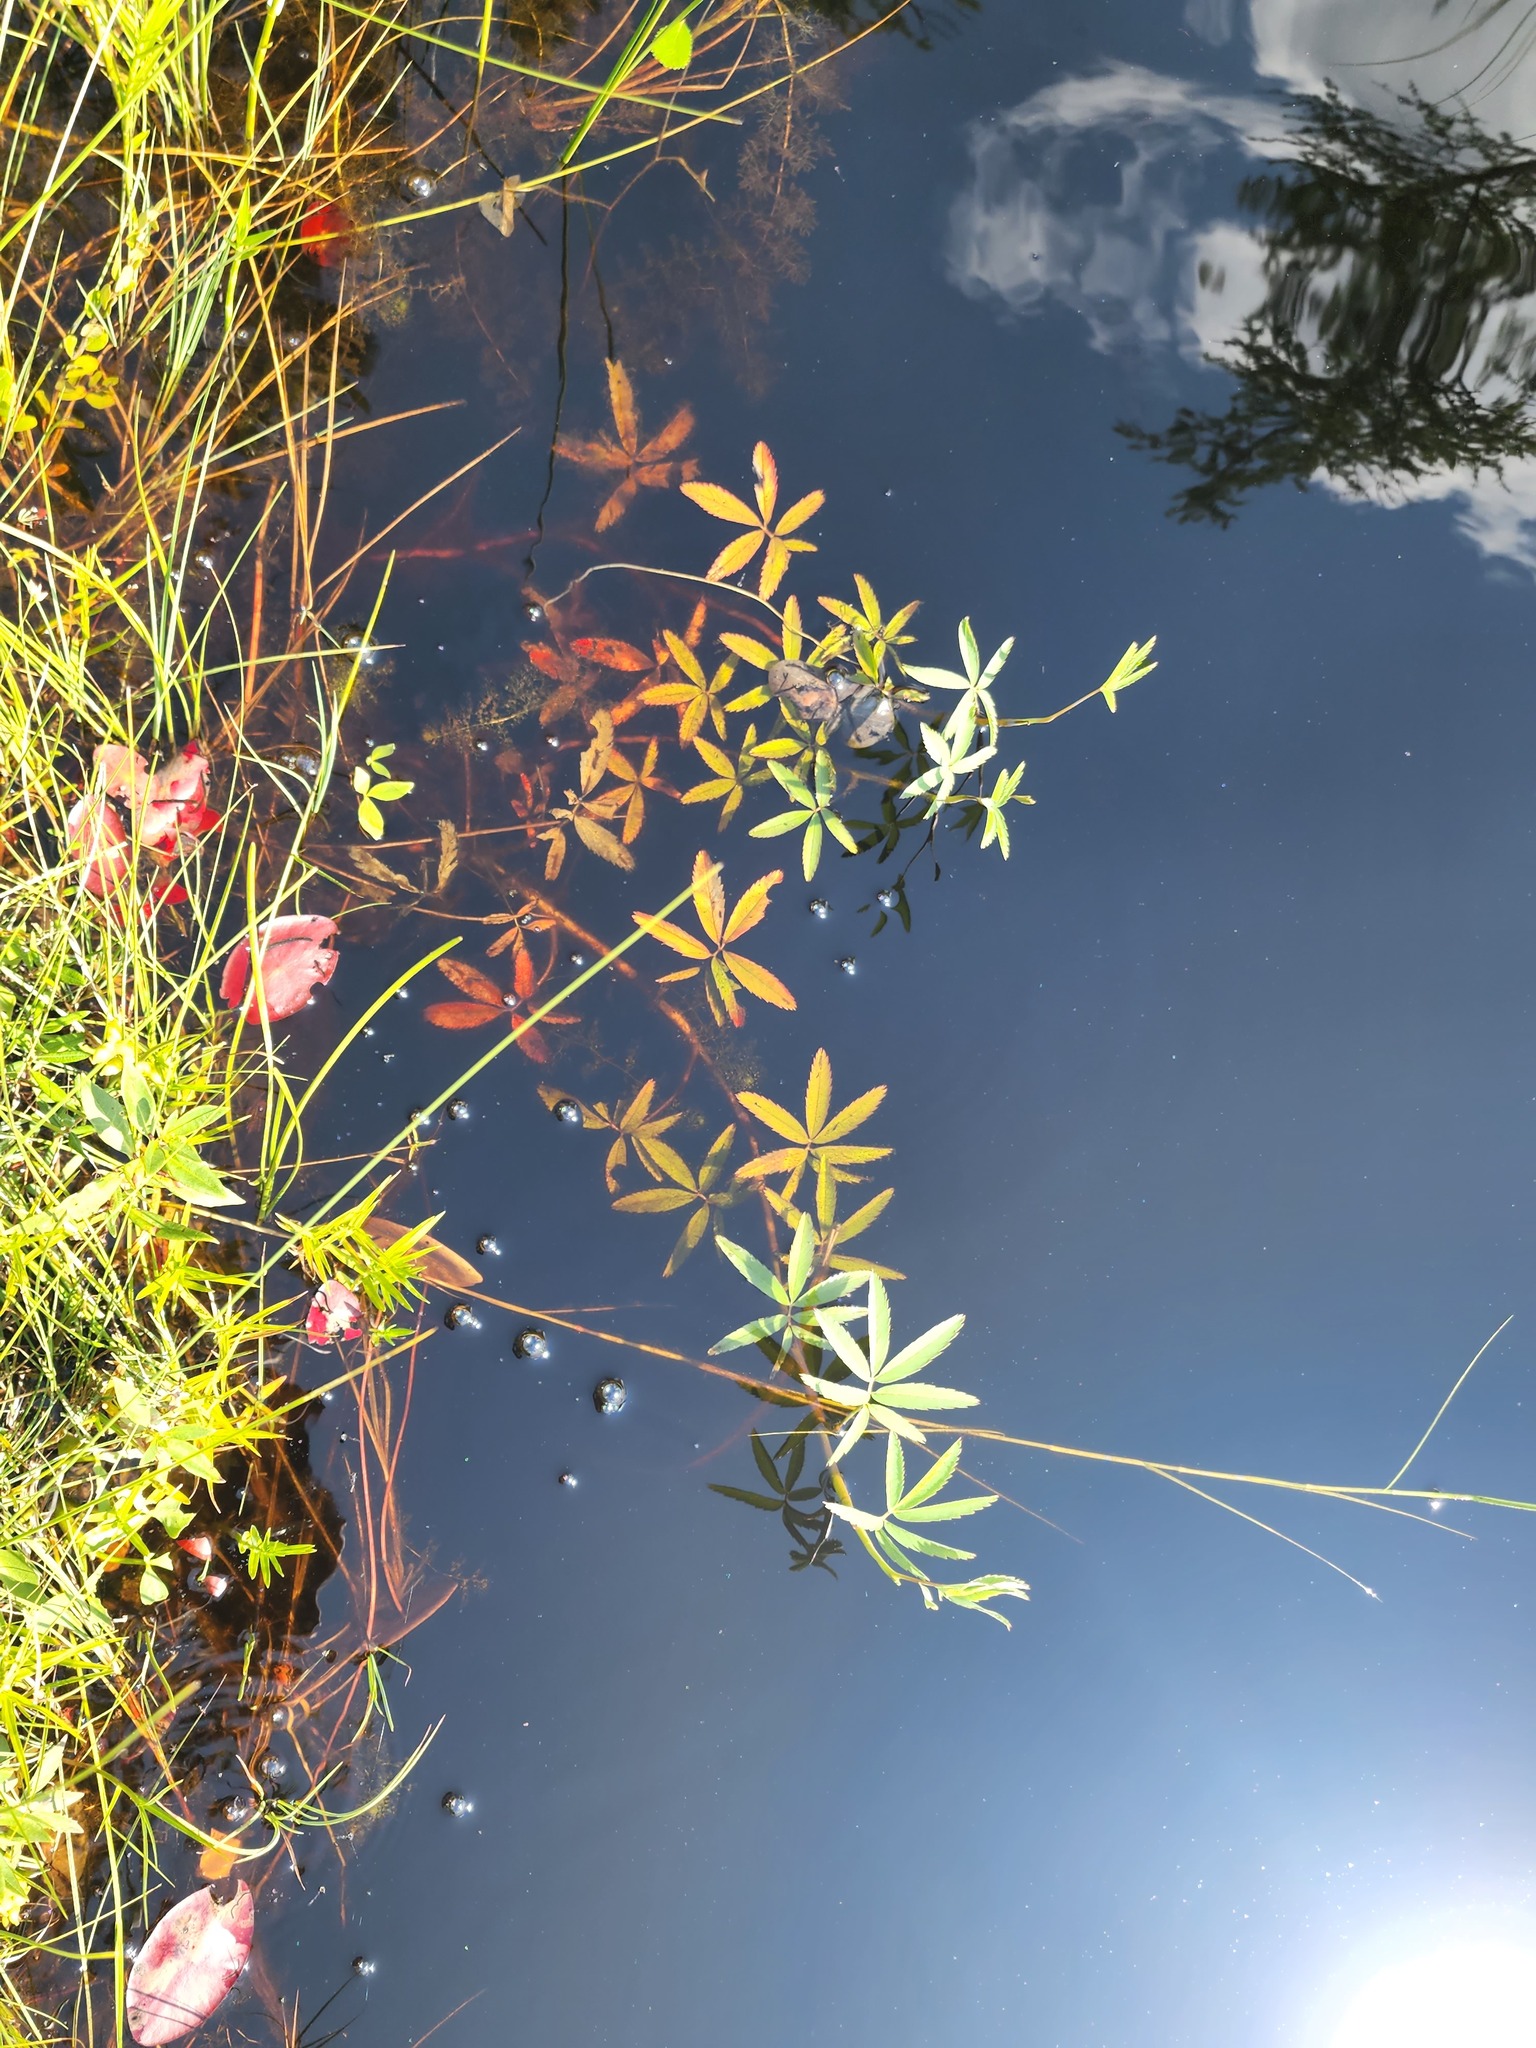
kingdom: Plantae
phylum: Tracheophyta
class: Magnoliopsida
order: Rosales
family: Rosaceae
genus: Comarum
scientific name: Comarum palustre
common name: Marsh cinquefoil
